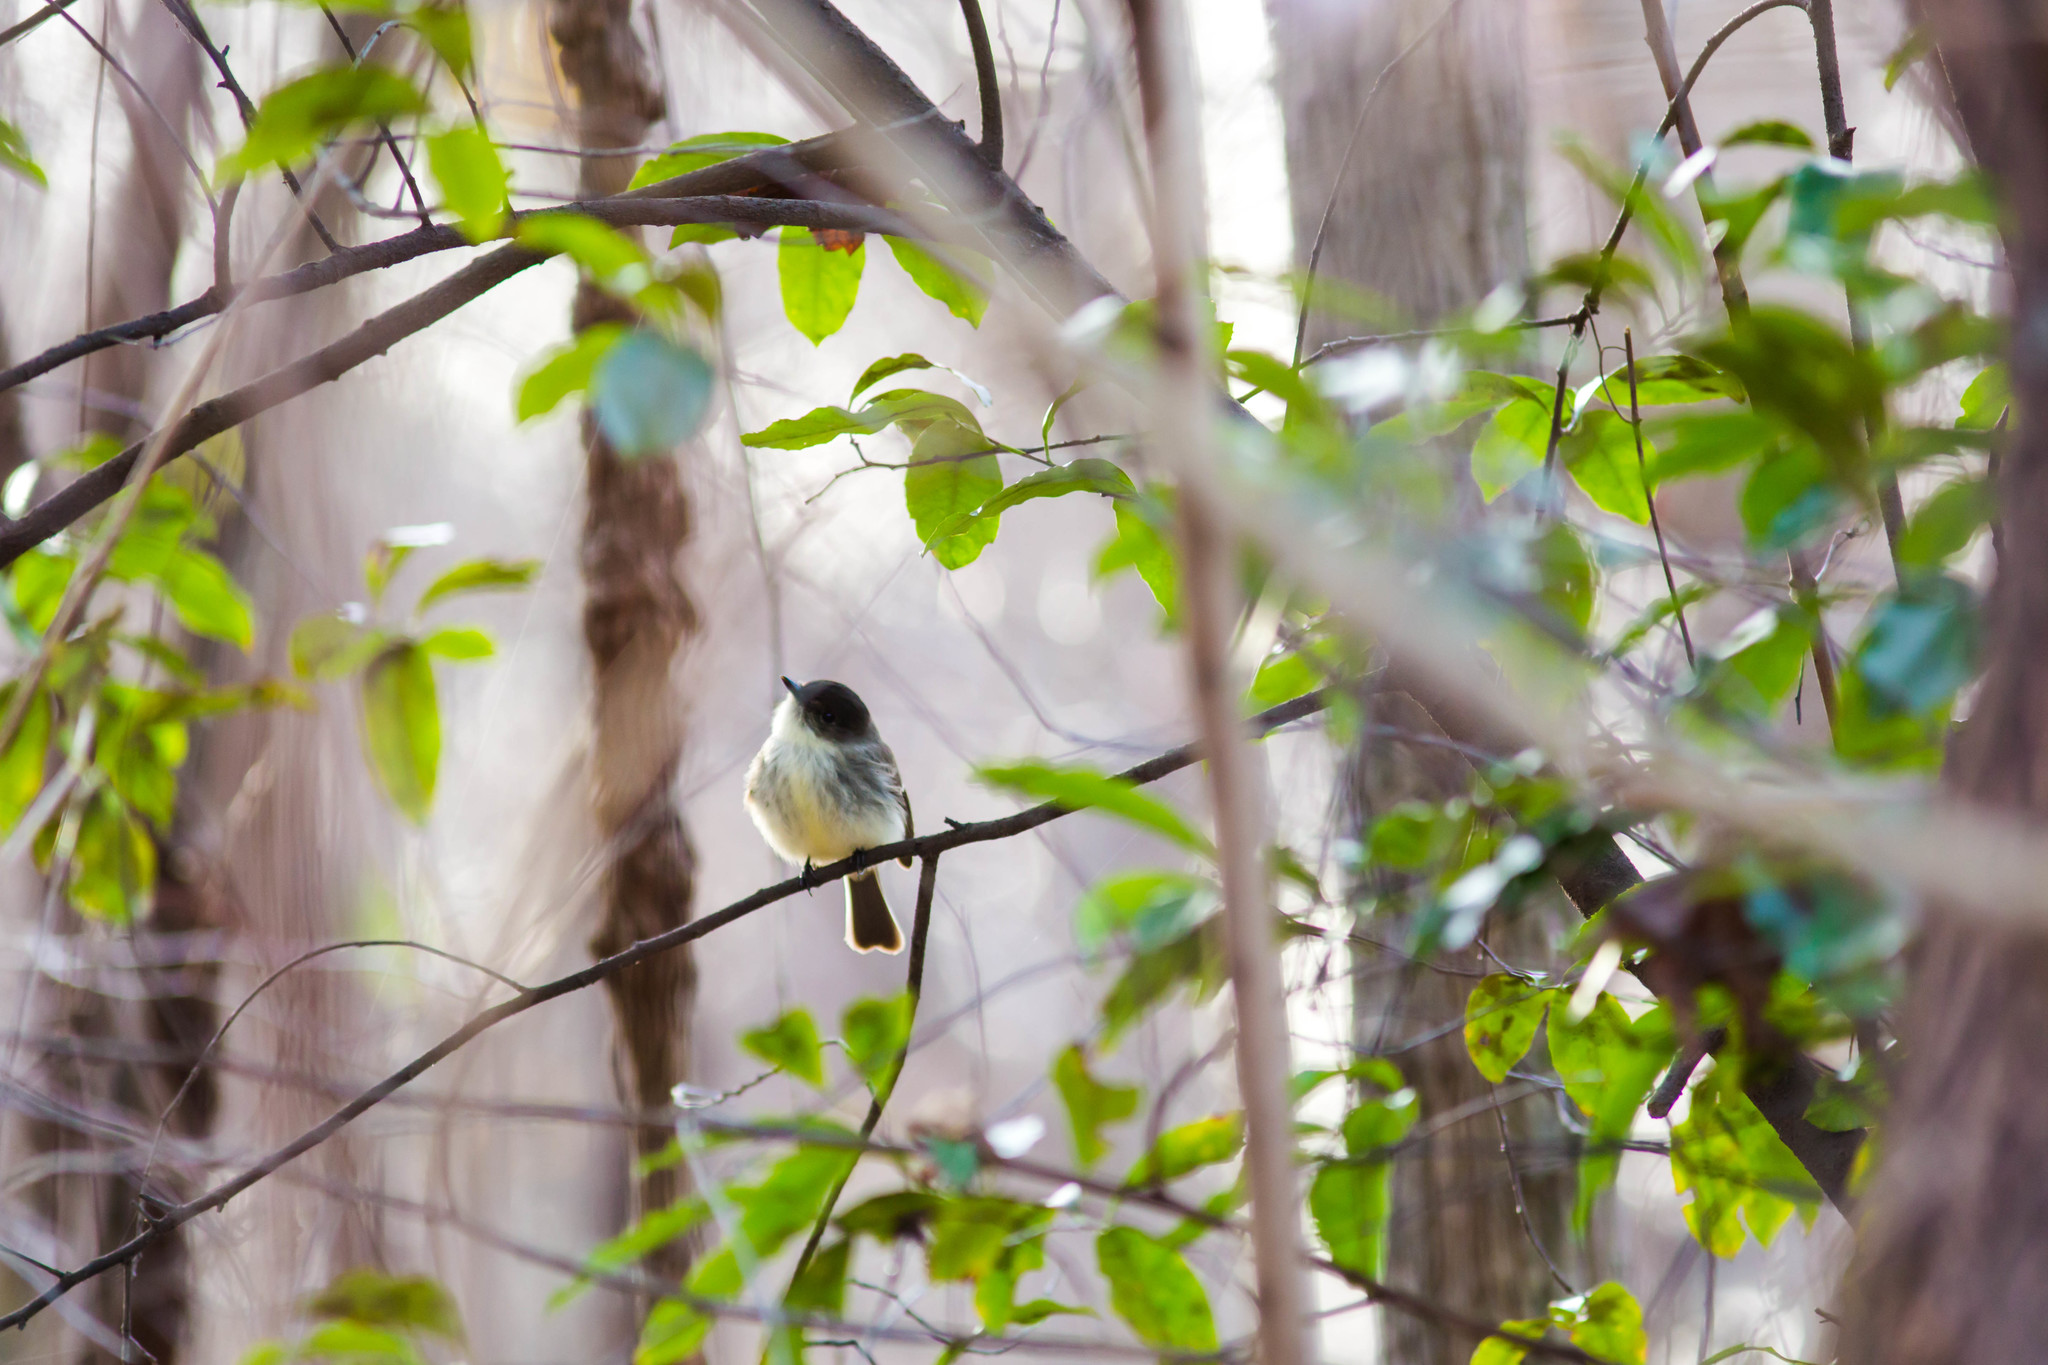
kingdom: Animalia
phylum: Chordata
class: Aves
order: Passeriformes
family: Tyrannidae
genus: Sayornis
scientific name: Sayornis phoebe
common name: Eastern phoebe
